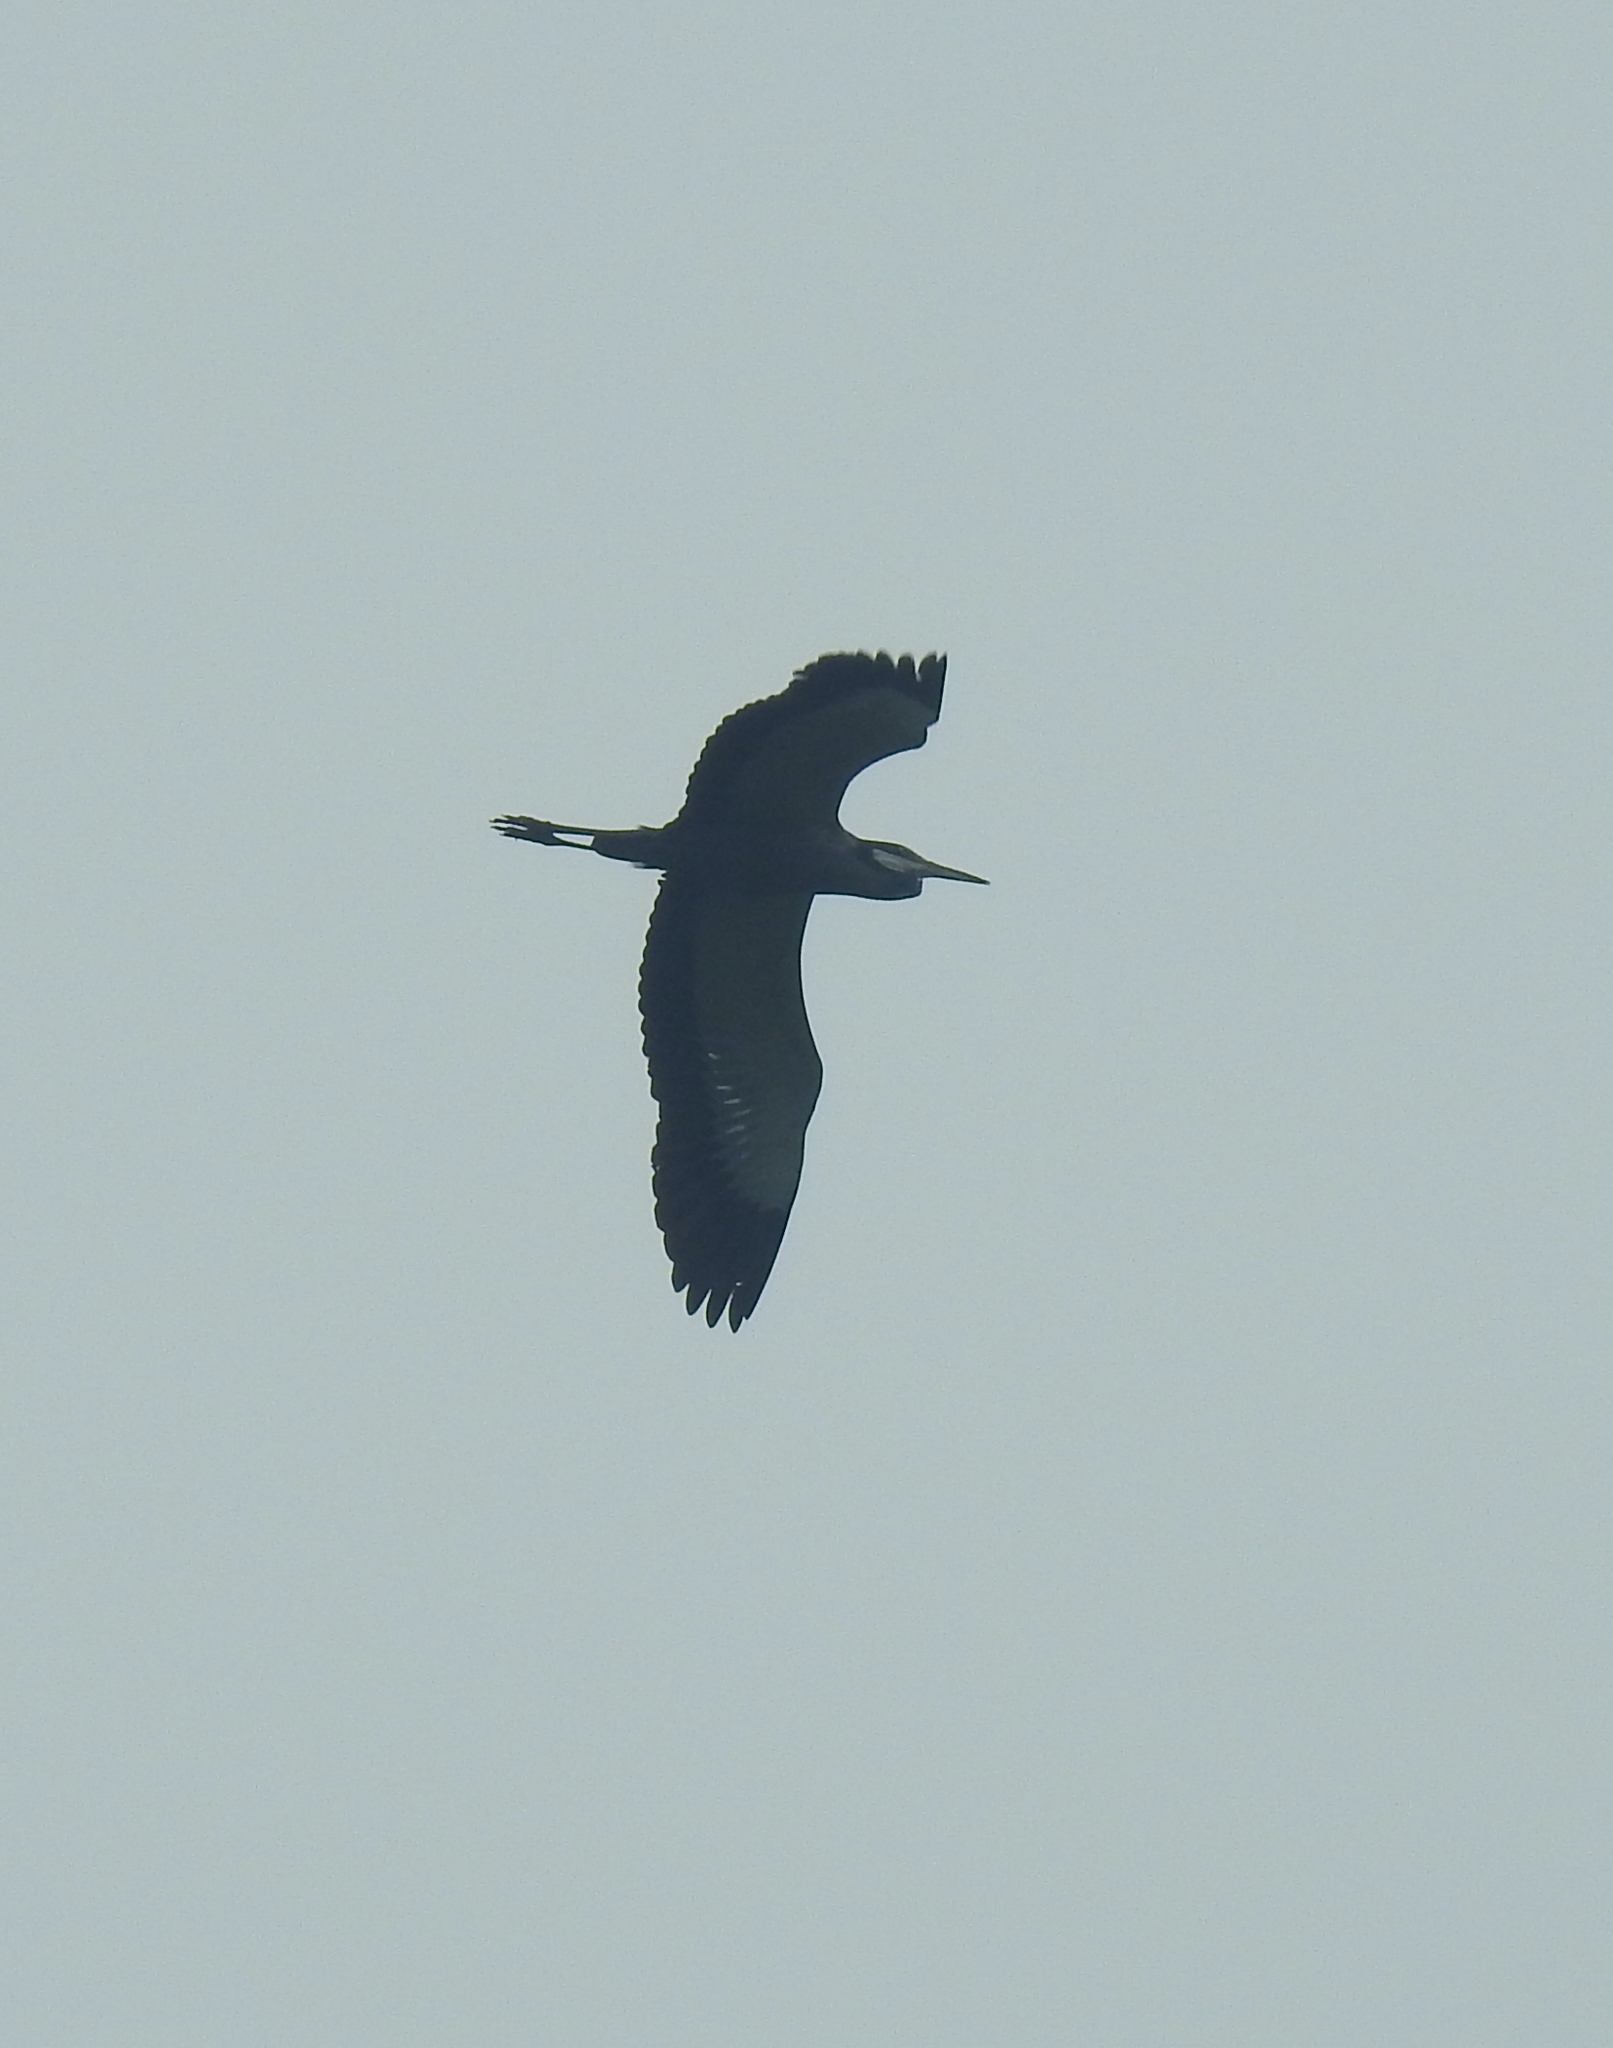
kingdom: Animalia
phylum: Chordata
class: Aves
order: Pelecaniformes
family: Ardeidae
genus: Ardea
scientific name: Ardea melanocephala
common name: Black-headed heron
